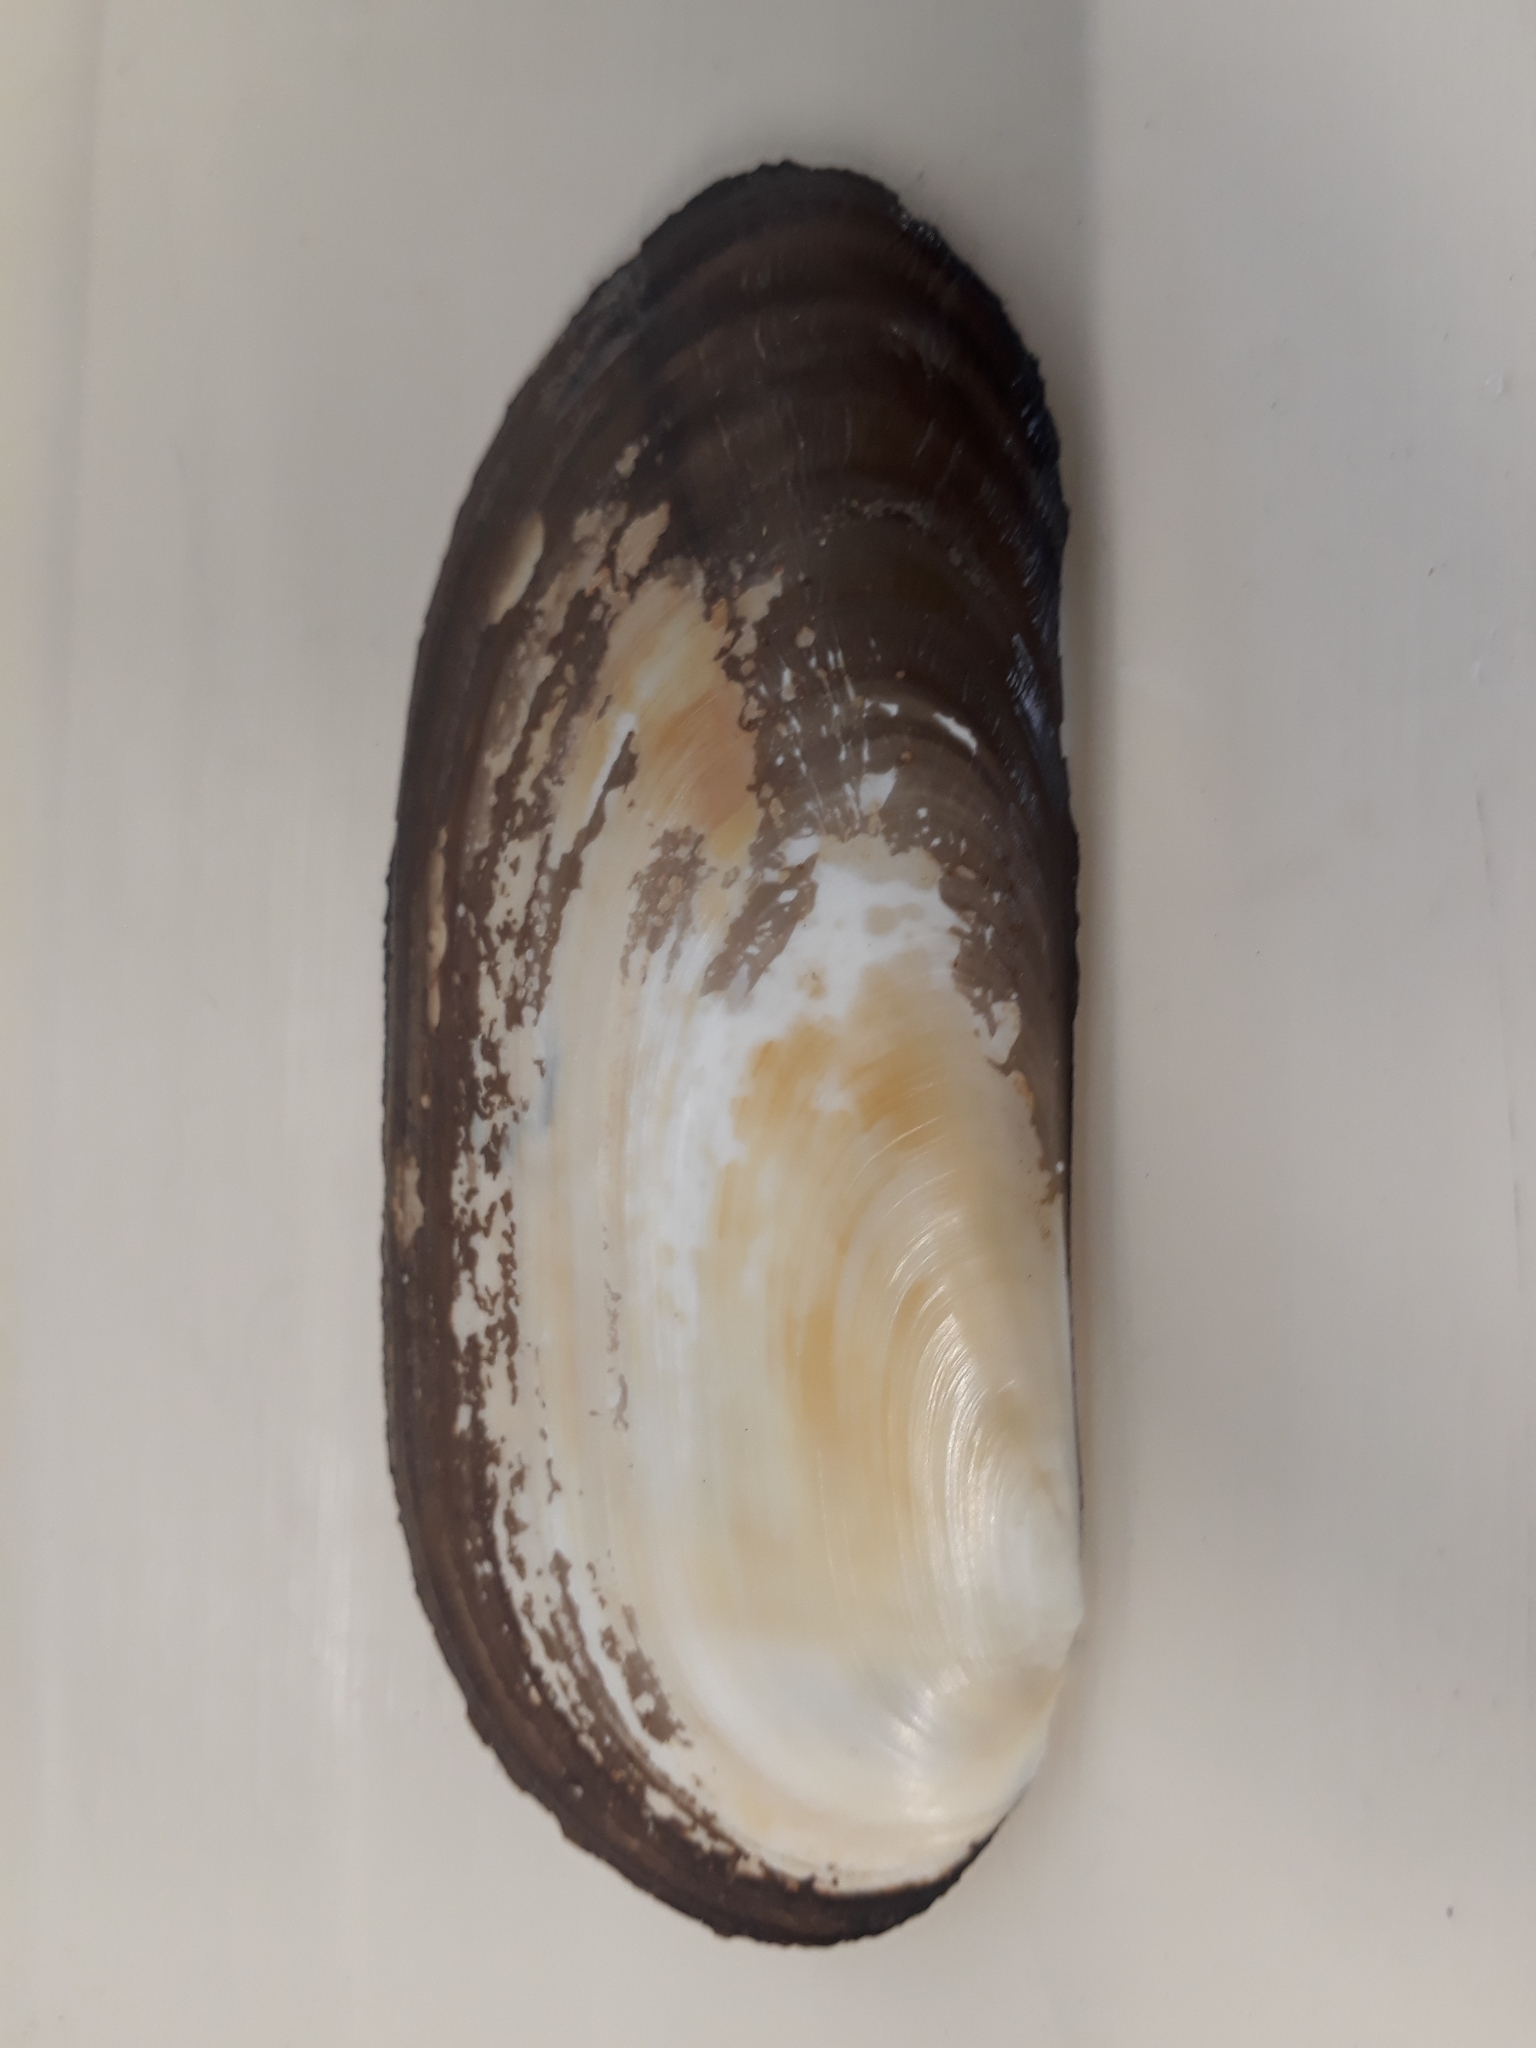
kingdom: Animalia
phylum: Mollusca
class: Bivalvia
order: Venerida
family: Mactridae
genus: Zenatia
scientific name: Zenatia acinaces
